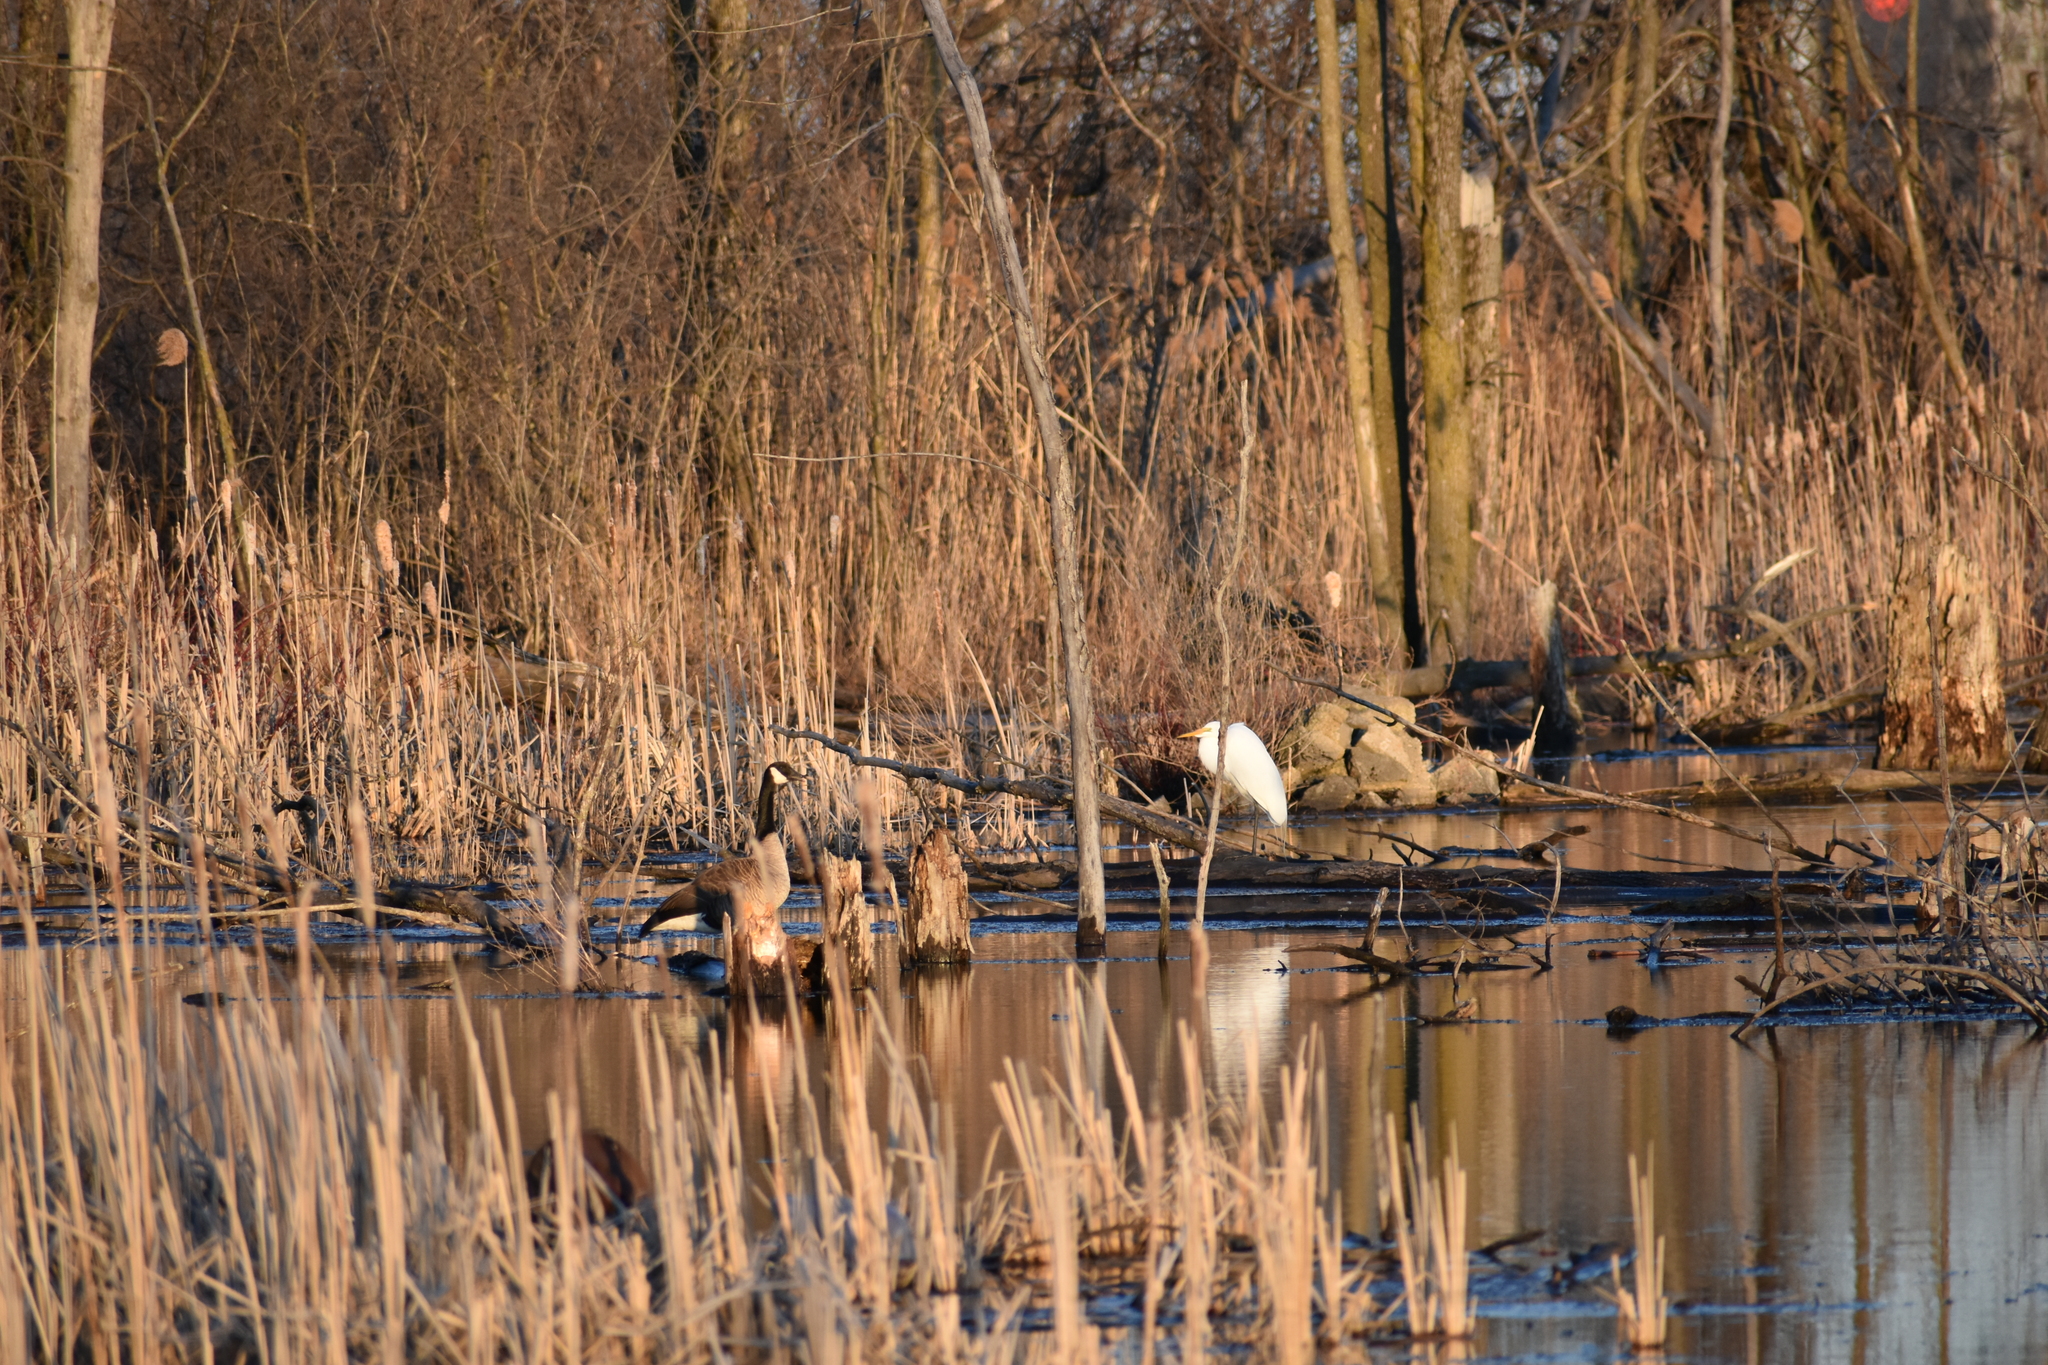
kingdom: Animalia
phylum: Chordata
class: Aves
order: Pelecaniformes
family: Ardeidae
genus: Ardea
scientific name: Ardea alba
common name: Great egret
